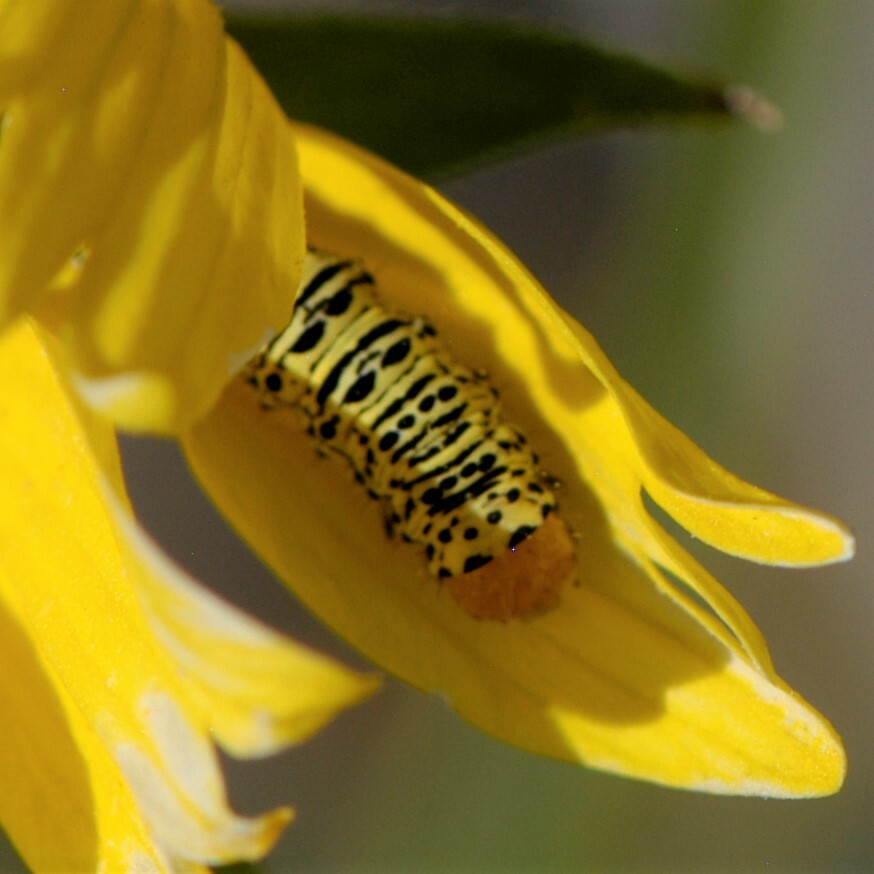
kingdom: Animalia
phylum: Arthropoda
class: Insecta
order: Lepidoptera
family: Noctuidae
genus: Basilodes
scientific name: Basilodes chrysopis
